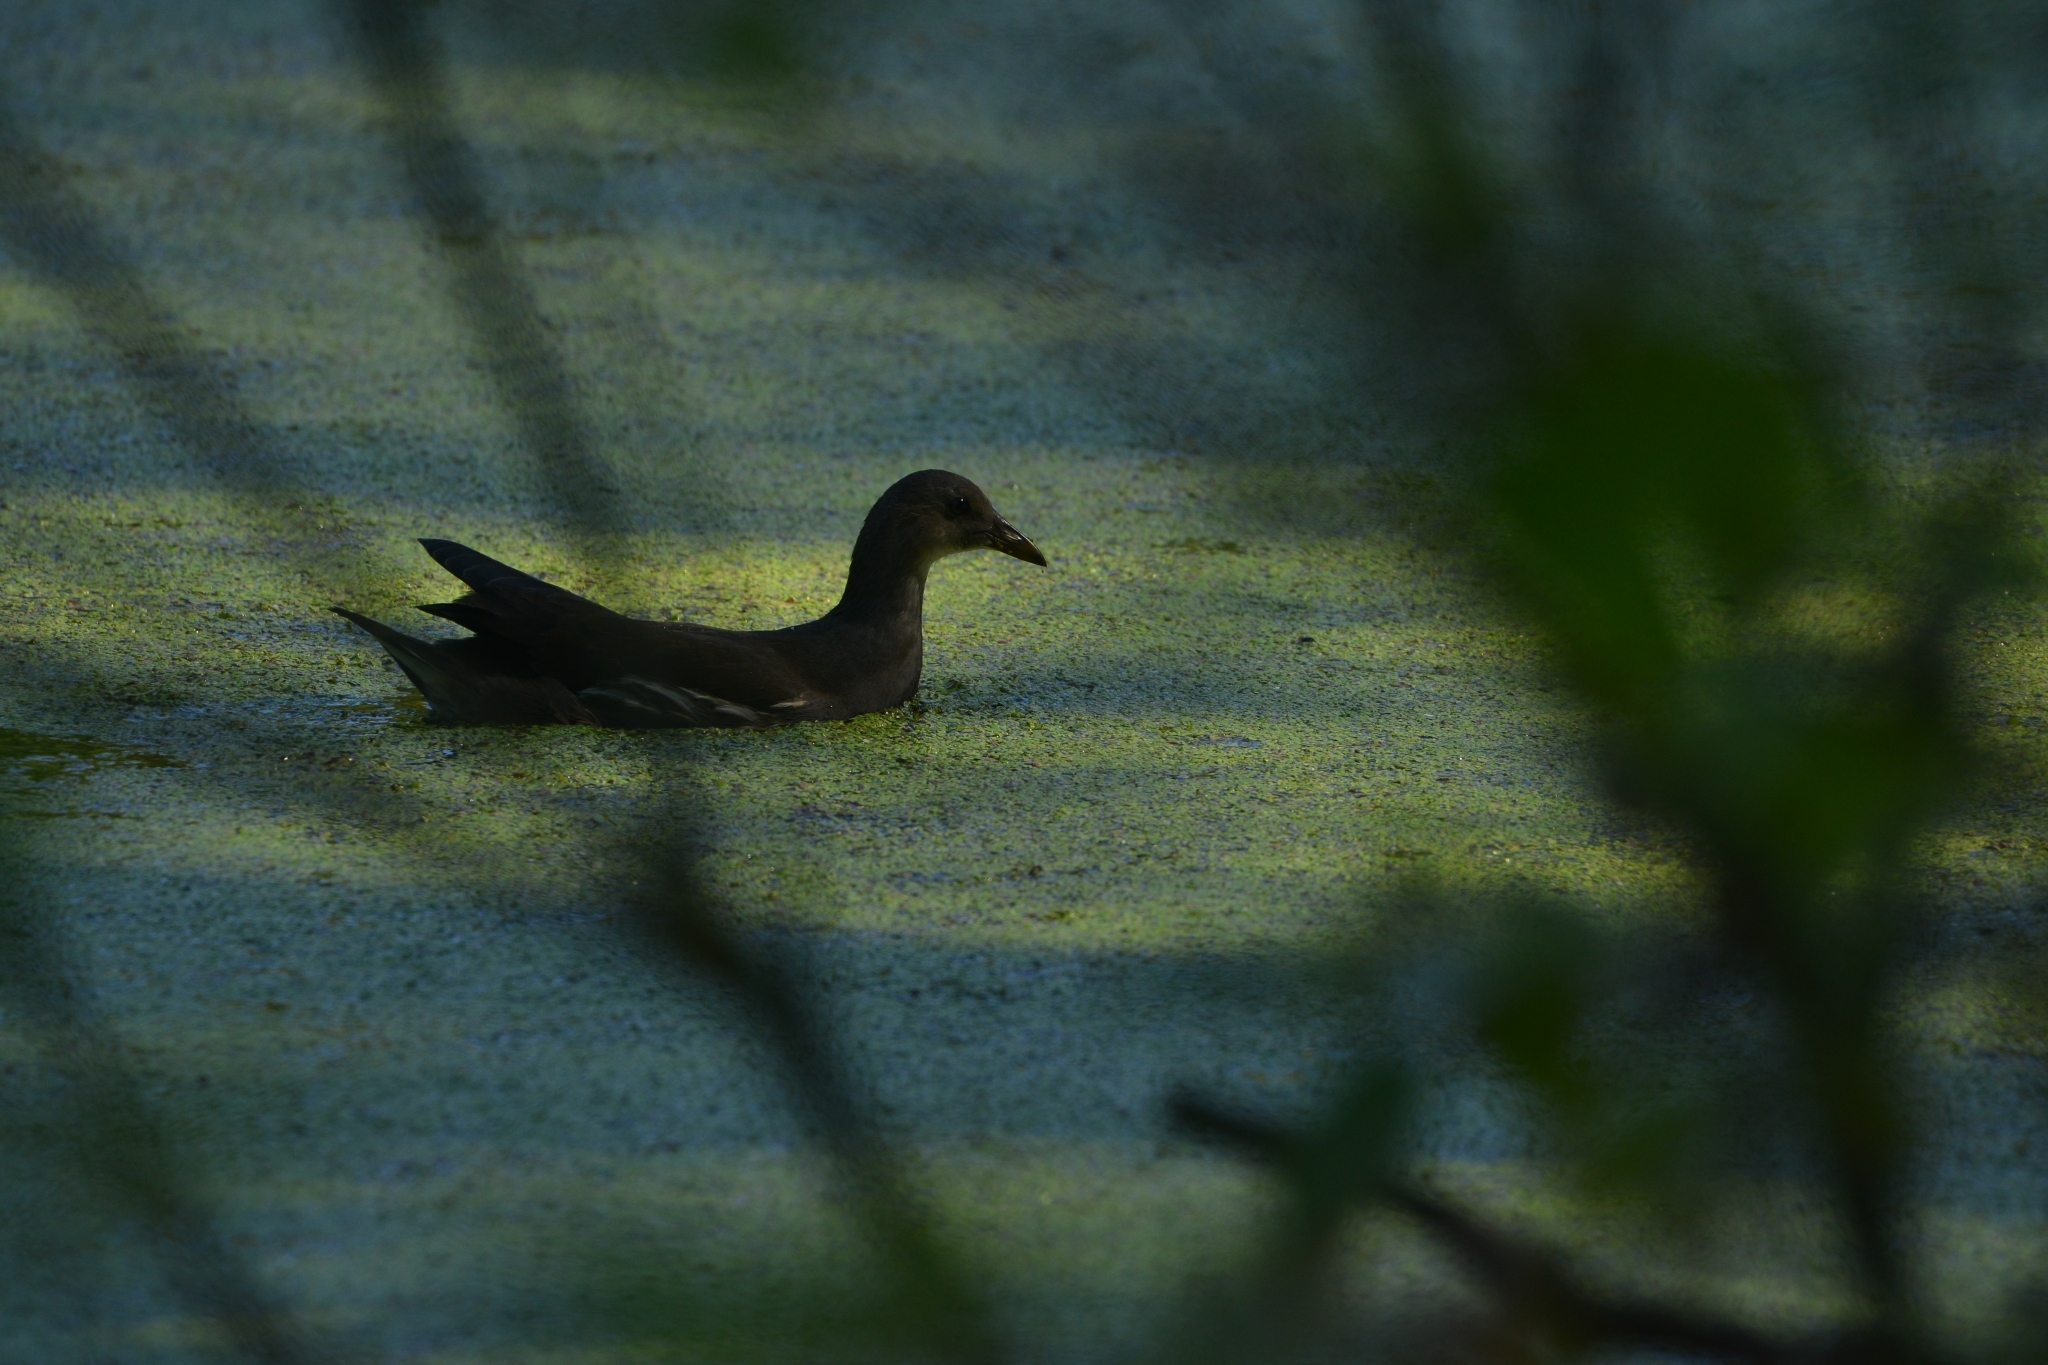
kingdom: Animalia
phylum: Chordata
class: Aves
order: Gruiformes
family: Rallidae
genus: Gallinula
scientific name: Gallinula chloropus
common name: Common moorhen
